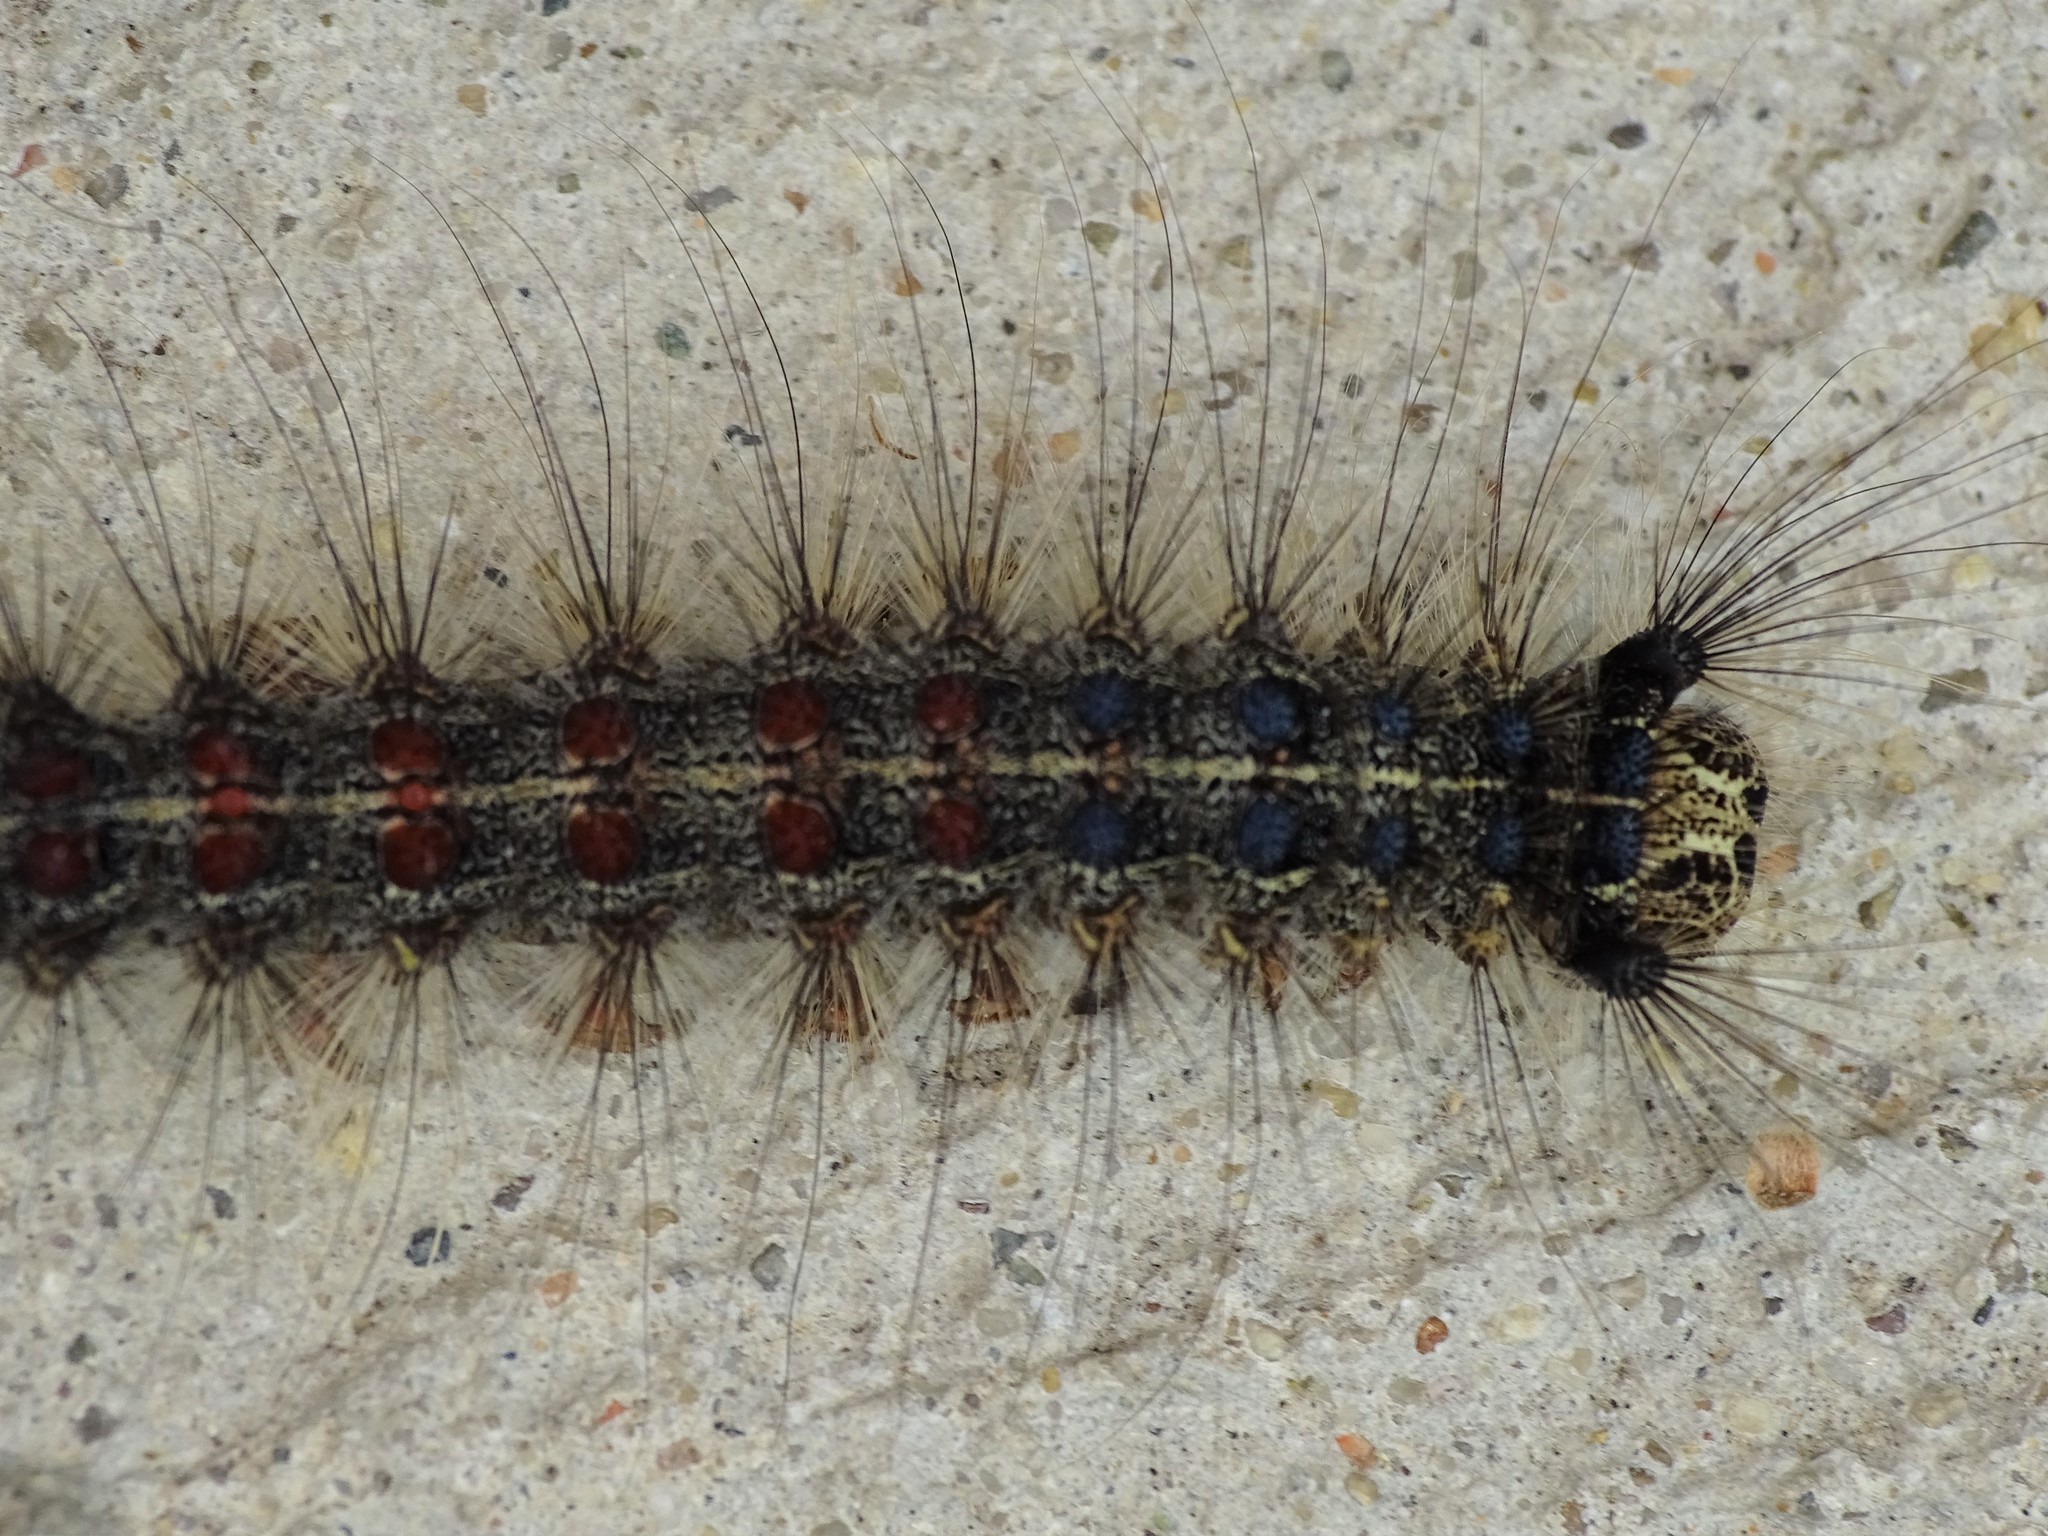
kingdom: Animalia
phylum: Arthropoda
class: Insecta
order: Lepidoptera
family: Erebidae
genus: Lymantria
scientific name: Lymantria dispar
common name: Gypsy moth
